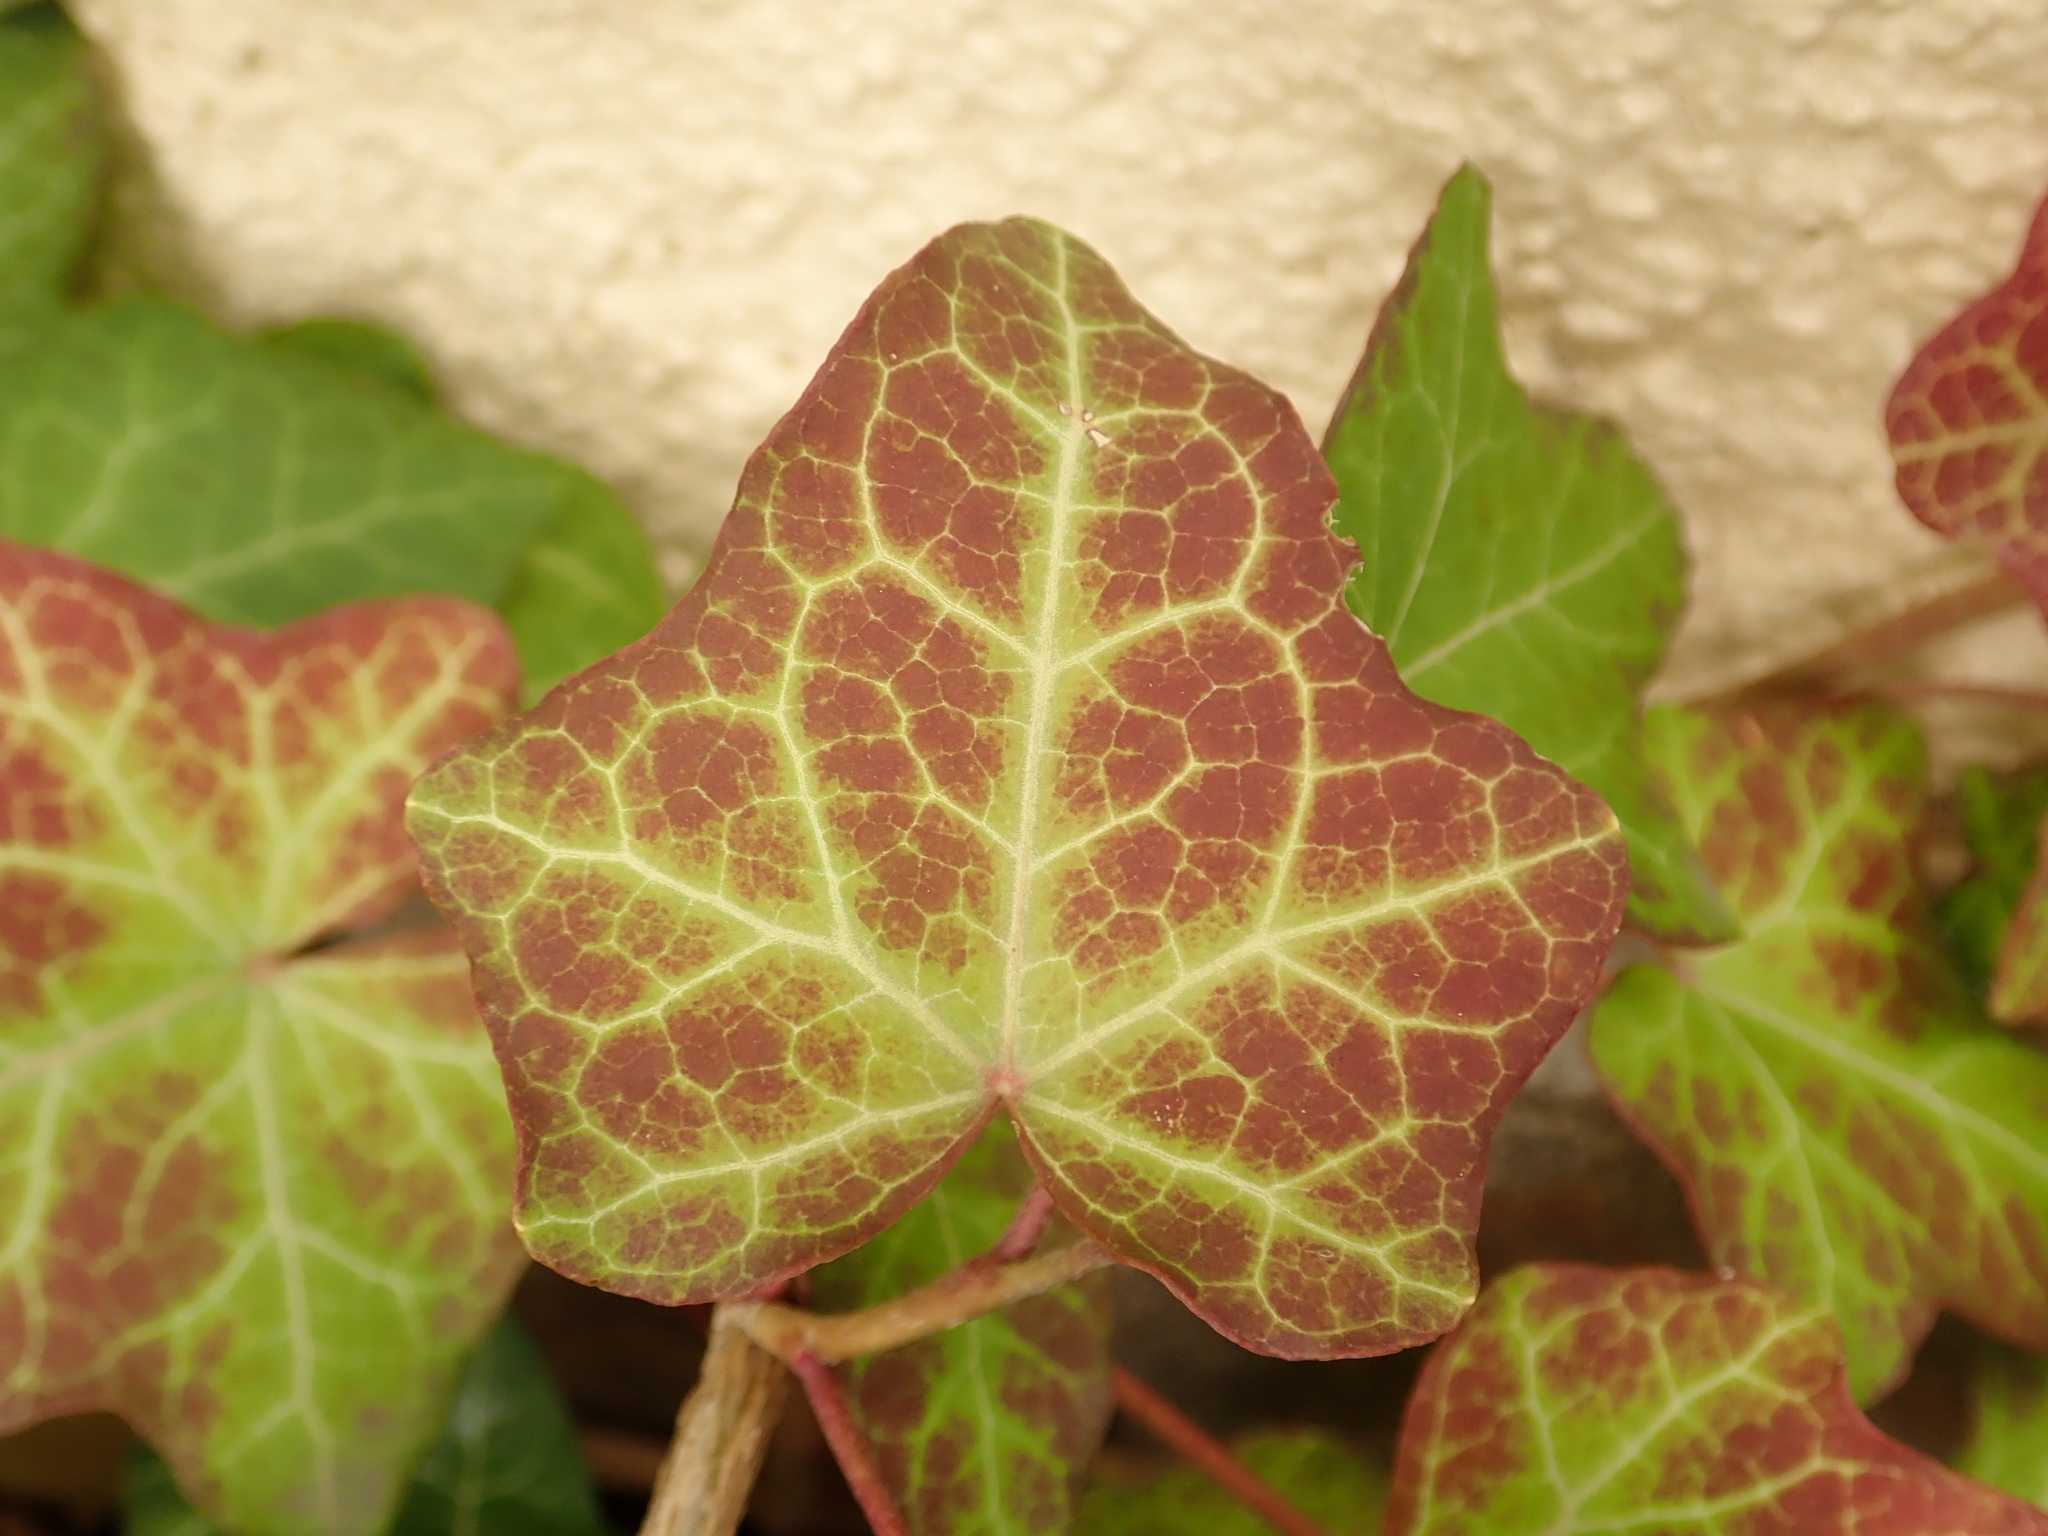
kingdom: Plantae
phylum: Tracheophyta
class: Magnoliopsida
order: Apiales
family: Araliaceae
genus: Hedera
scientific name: Hedera helix
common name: Ivy
